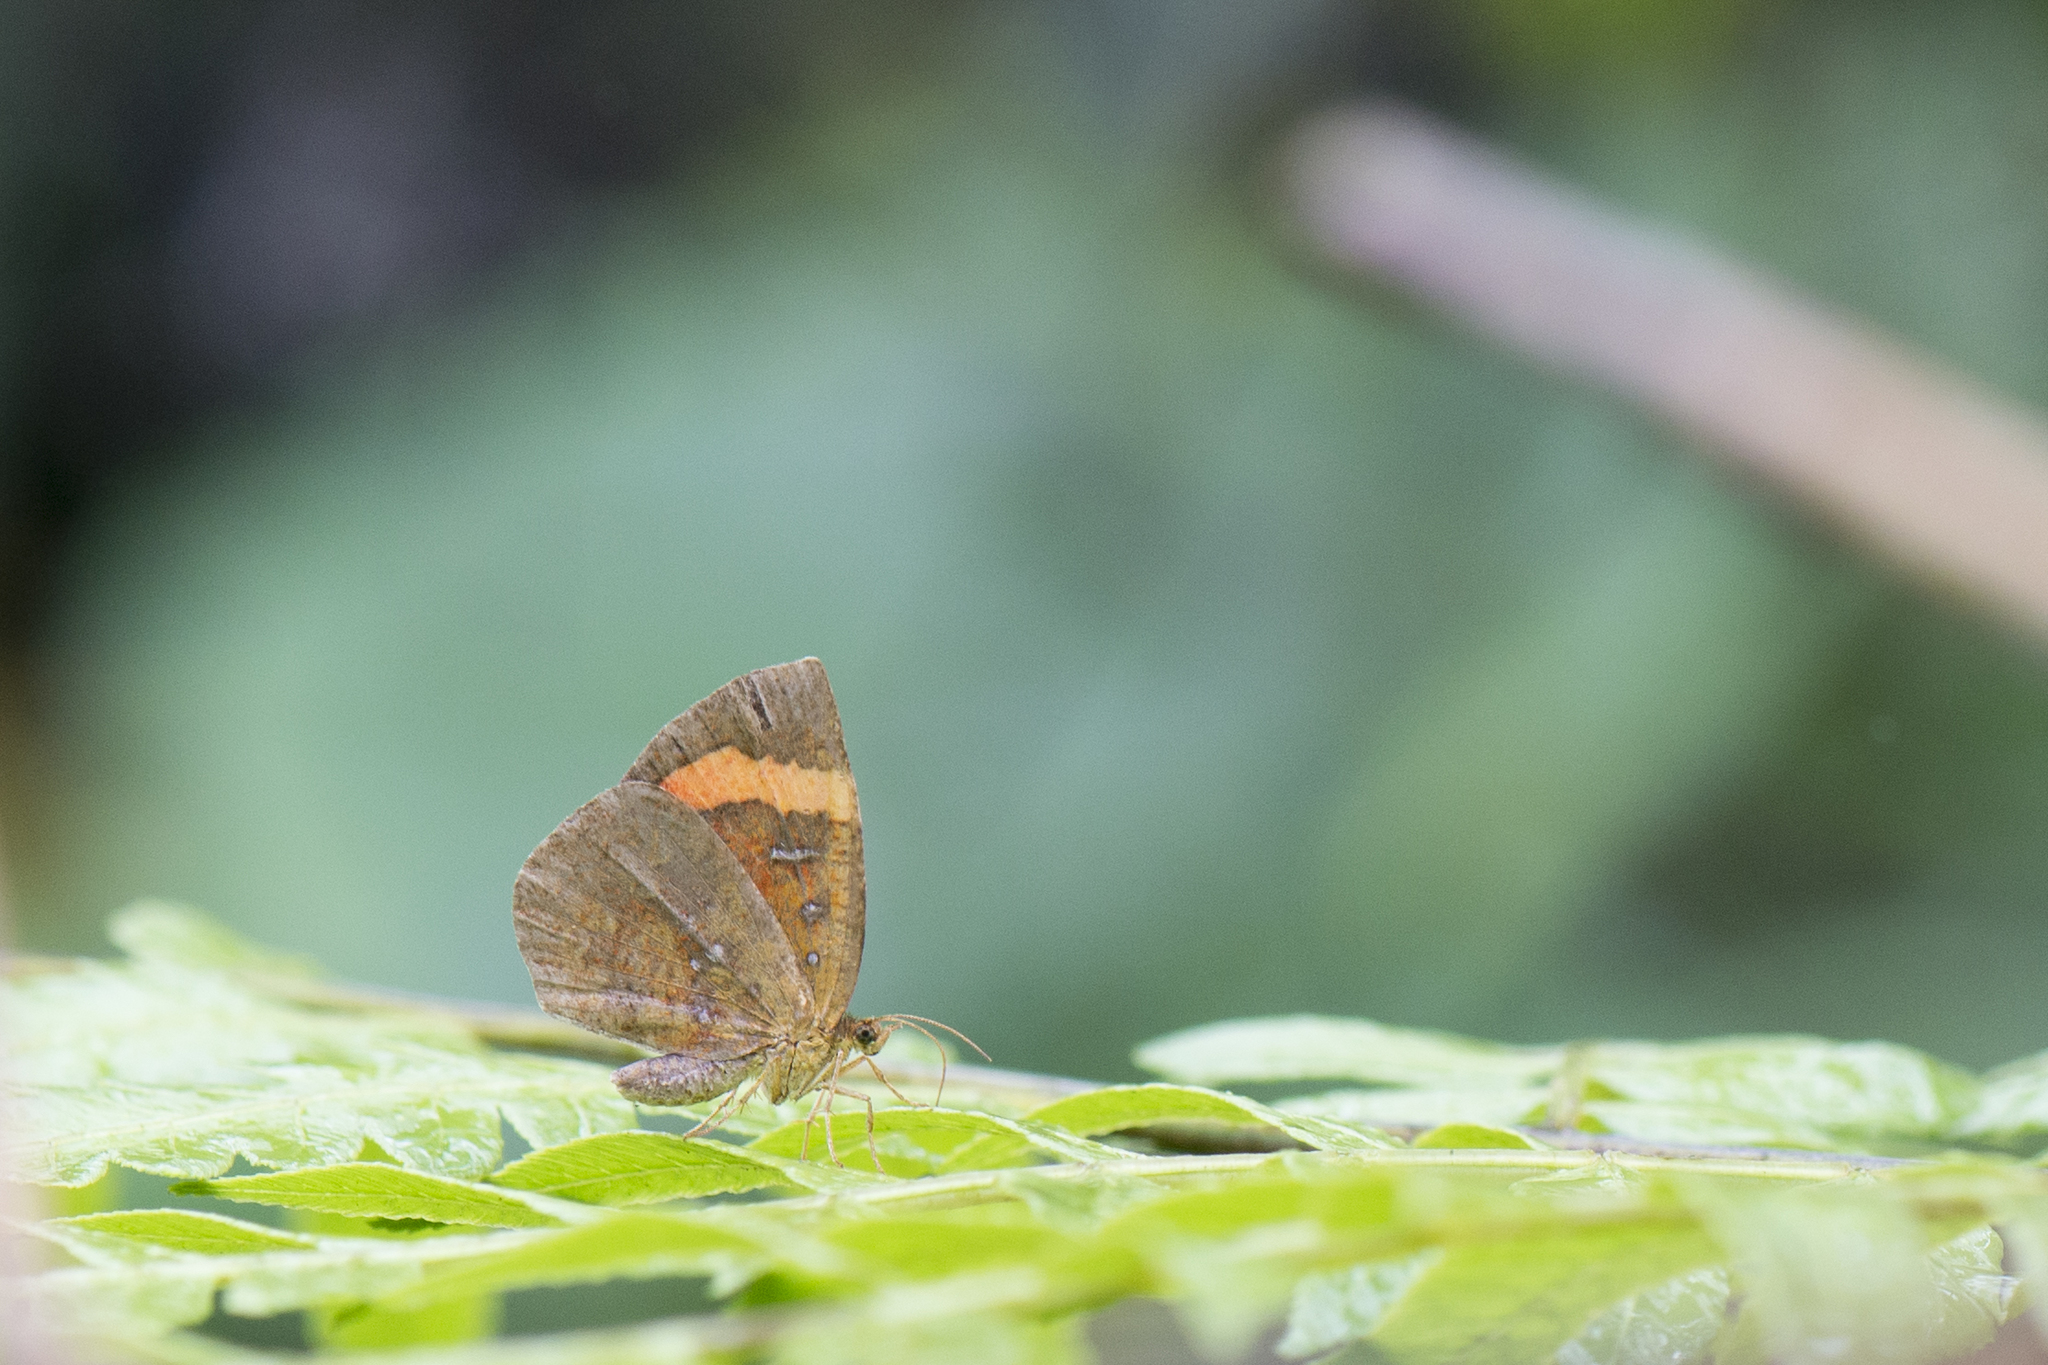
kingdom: Animalia
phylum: Arthropoda
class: Insecta
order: Lepidoptera
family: Callidulidae
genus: Petavia
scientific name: Petavia attenuata
